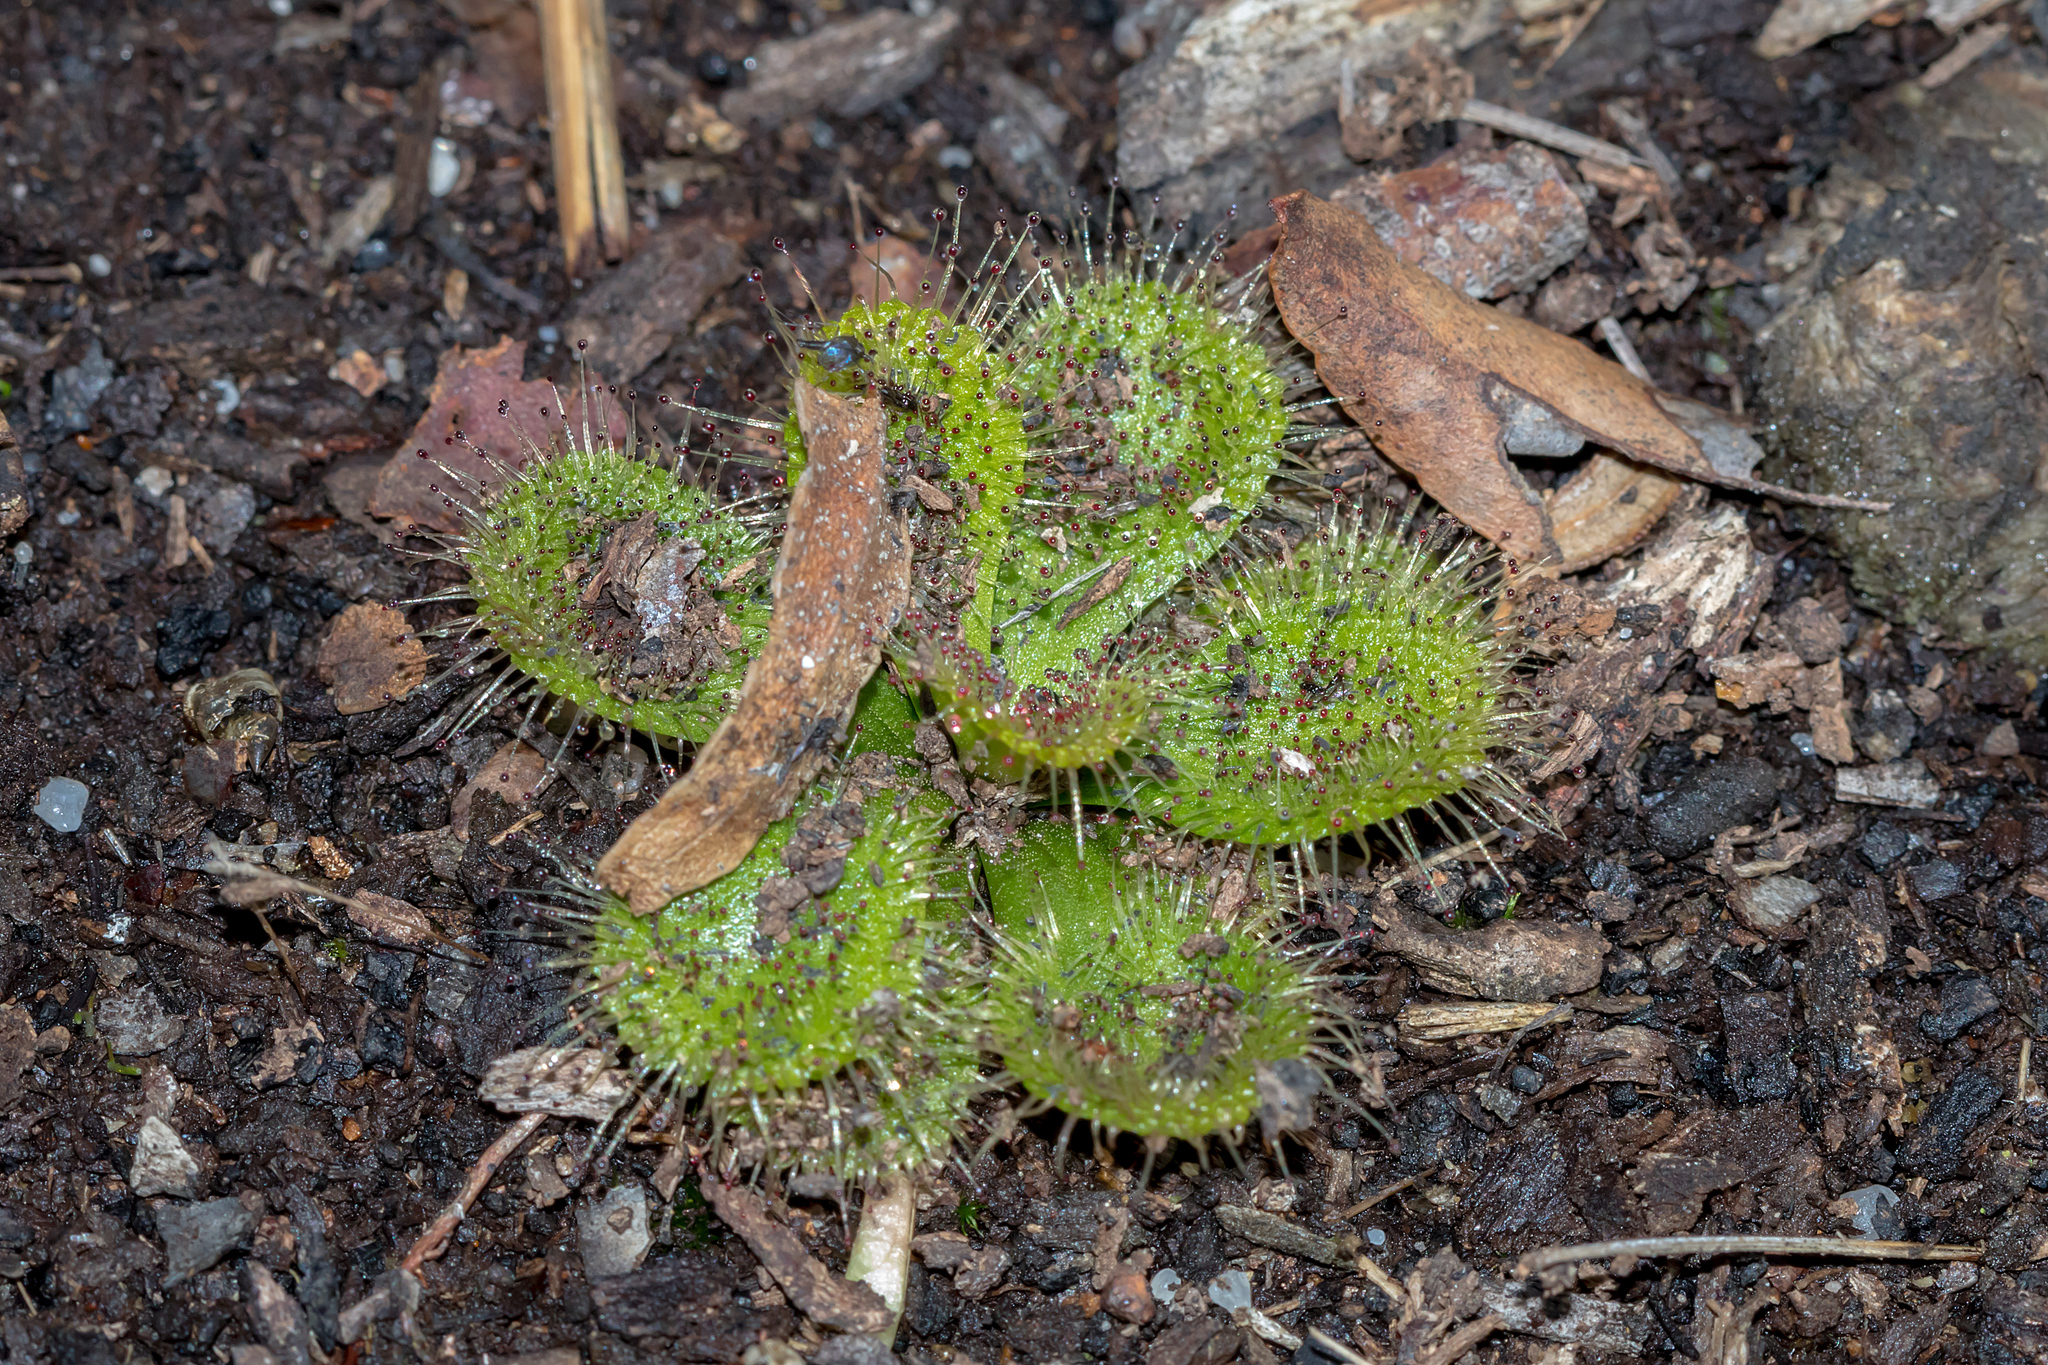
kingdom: Plantae
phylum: Tracheophyta
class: Magnoliopsida
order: Caryophyllales
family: Droseraceae
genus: Drosera
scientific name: Drosera aberrans
